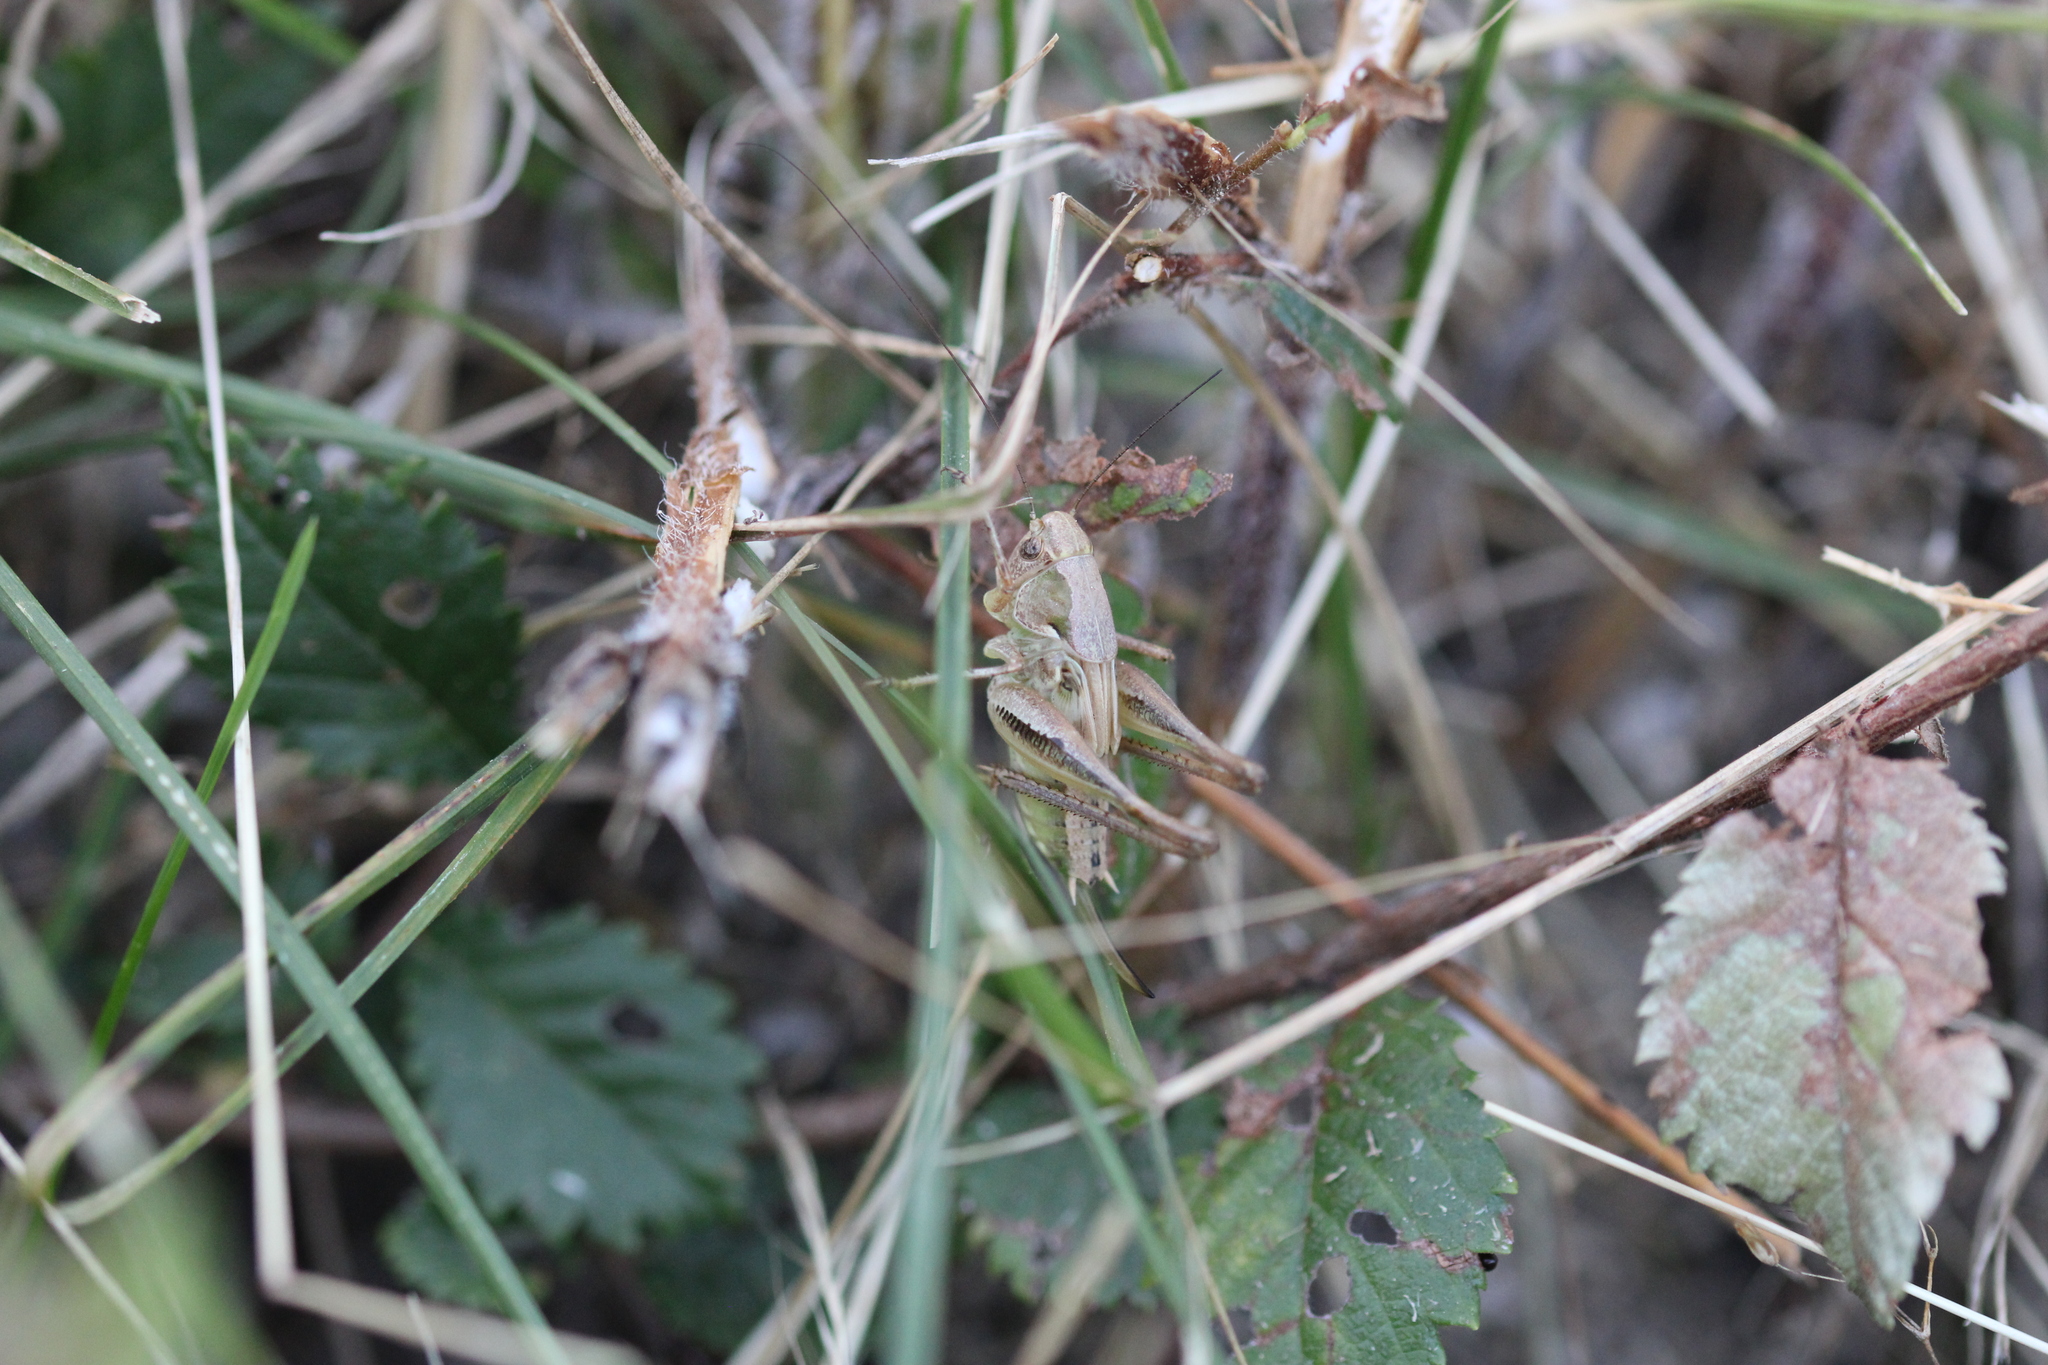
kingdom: Animalia
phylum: Arthropoda
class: Insecta
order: Orthoptera
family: Tettigoniidae
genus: Platycleis
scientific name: Platycleis albopunctata
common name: Grey bush-cricket
